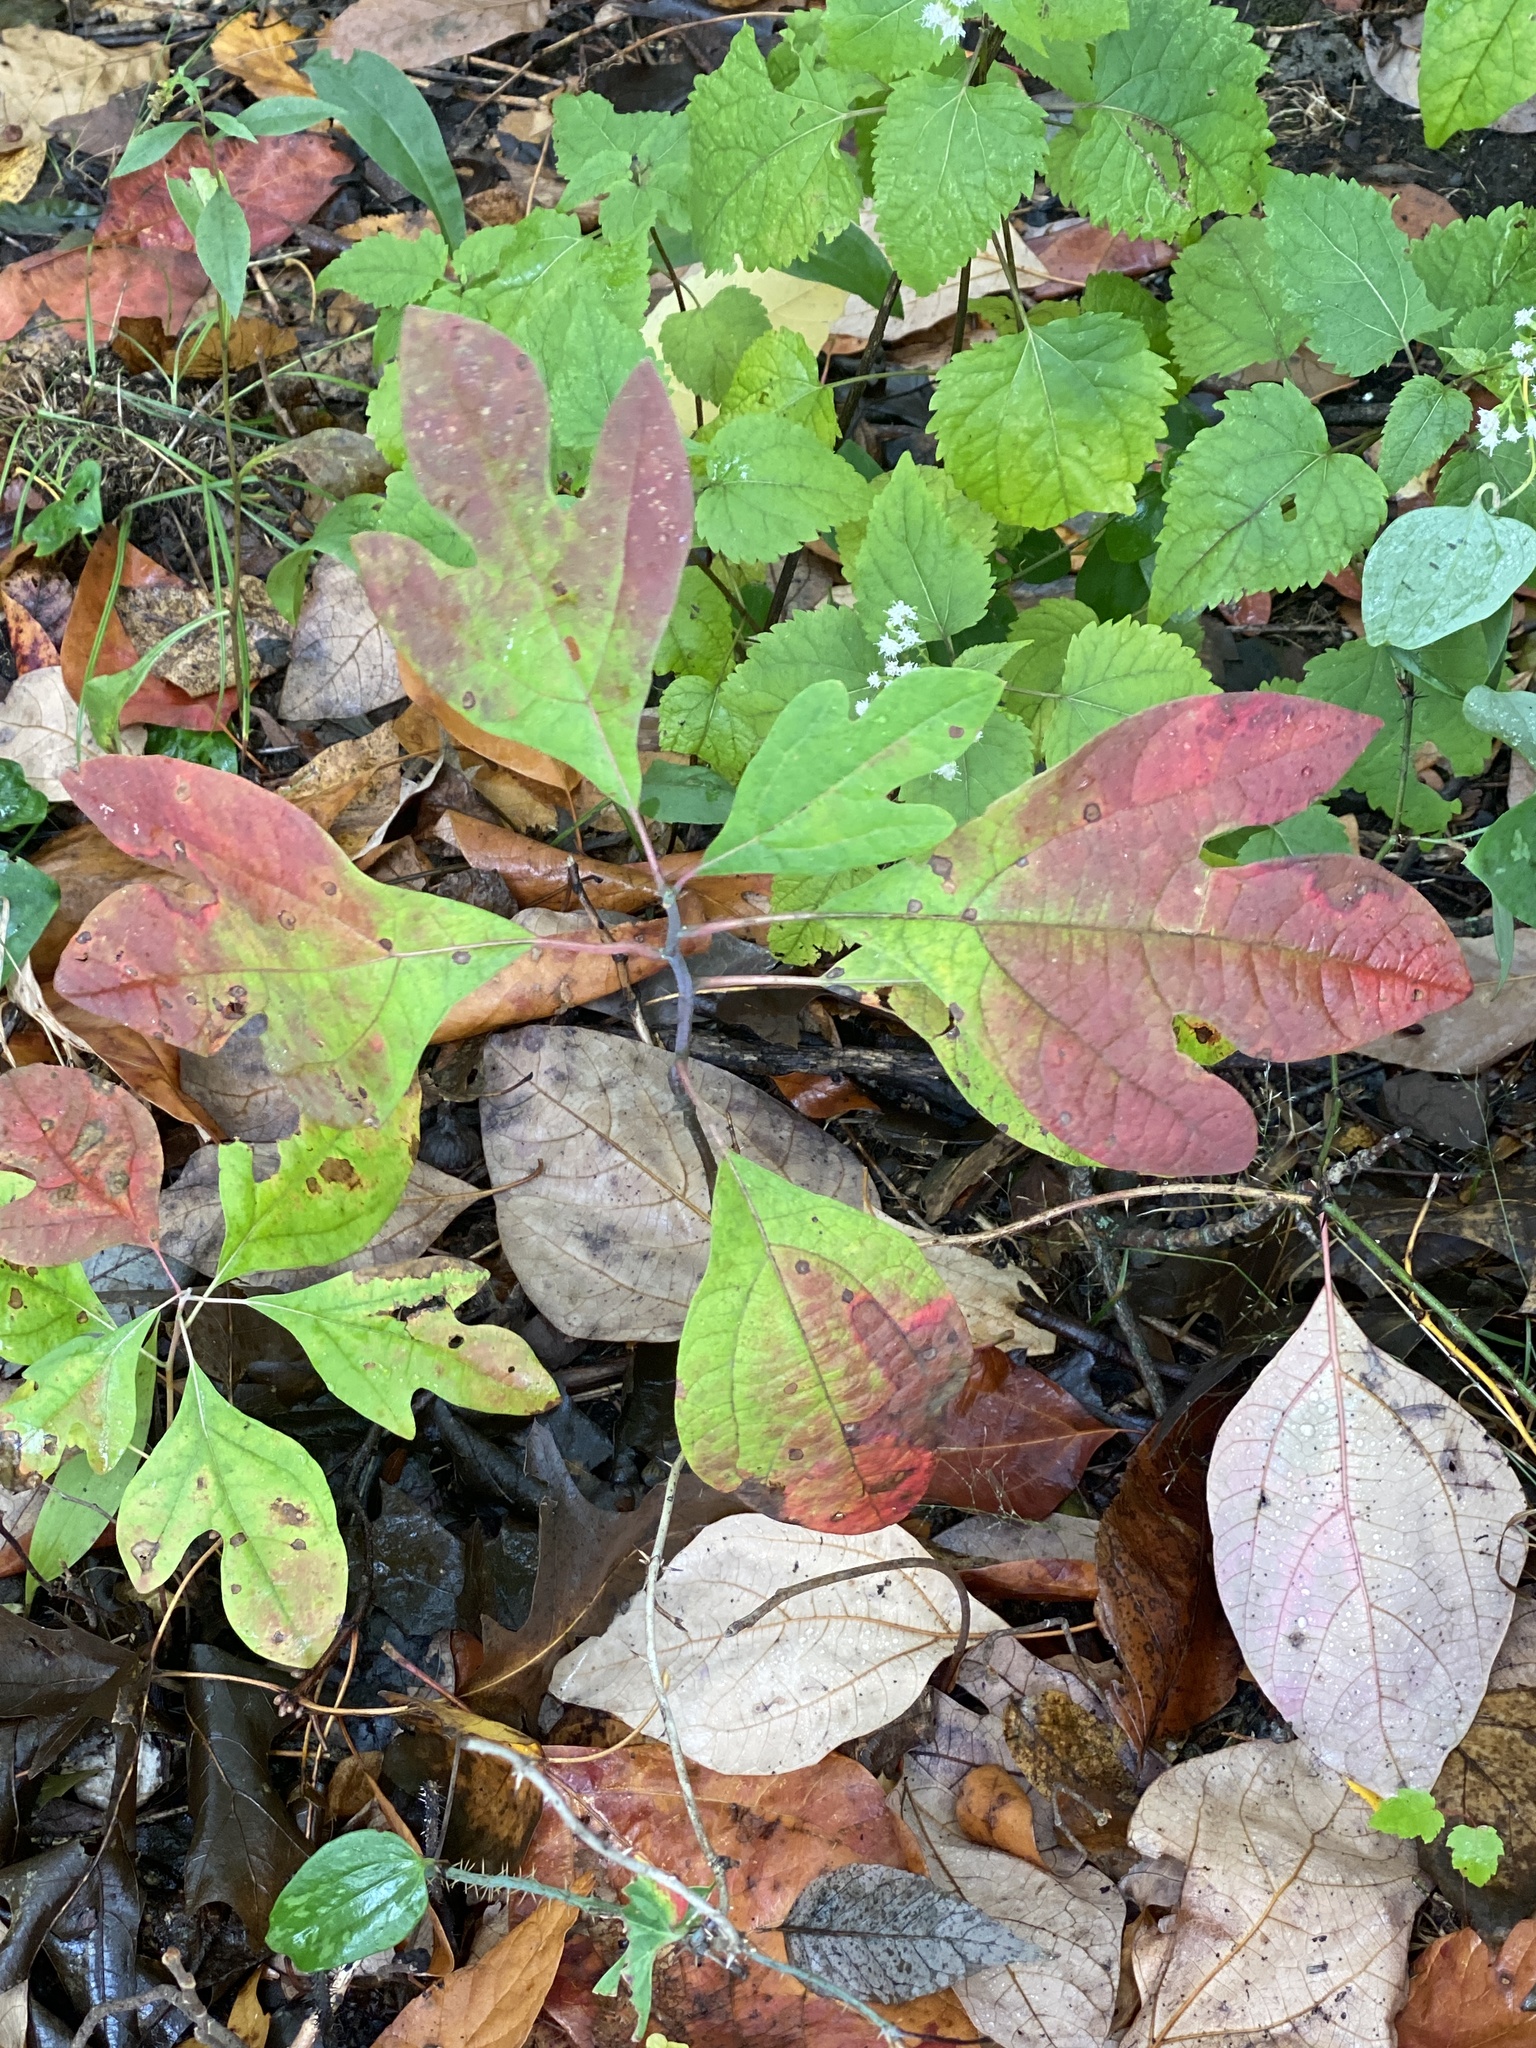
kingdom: Plantae
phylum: Tracheophyta
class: Magnoliopsida
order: Laurales
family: Lauraceae
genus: Sassafras
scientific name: Sassafras albidum
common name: Sassafras
